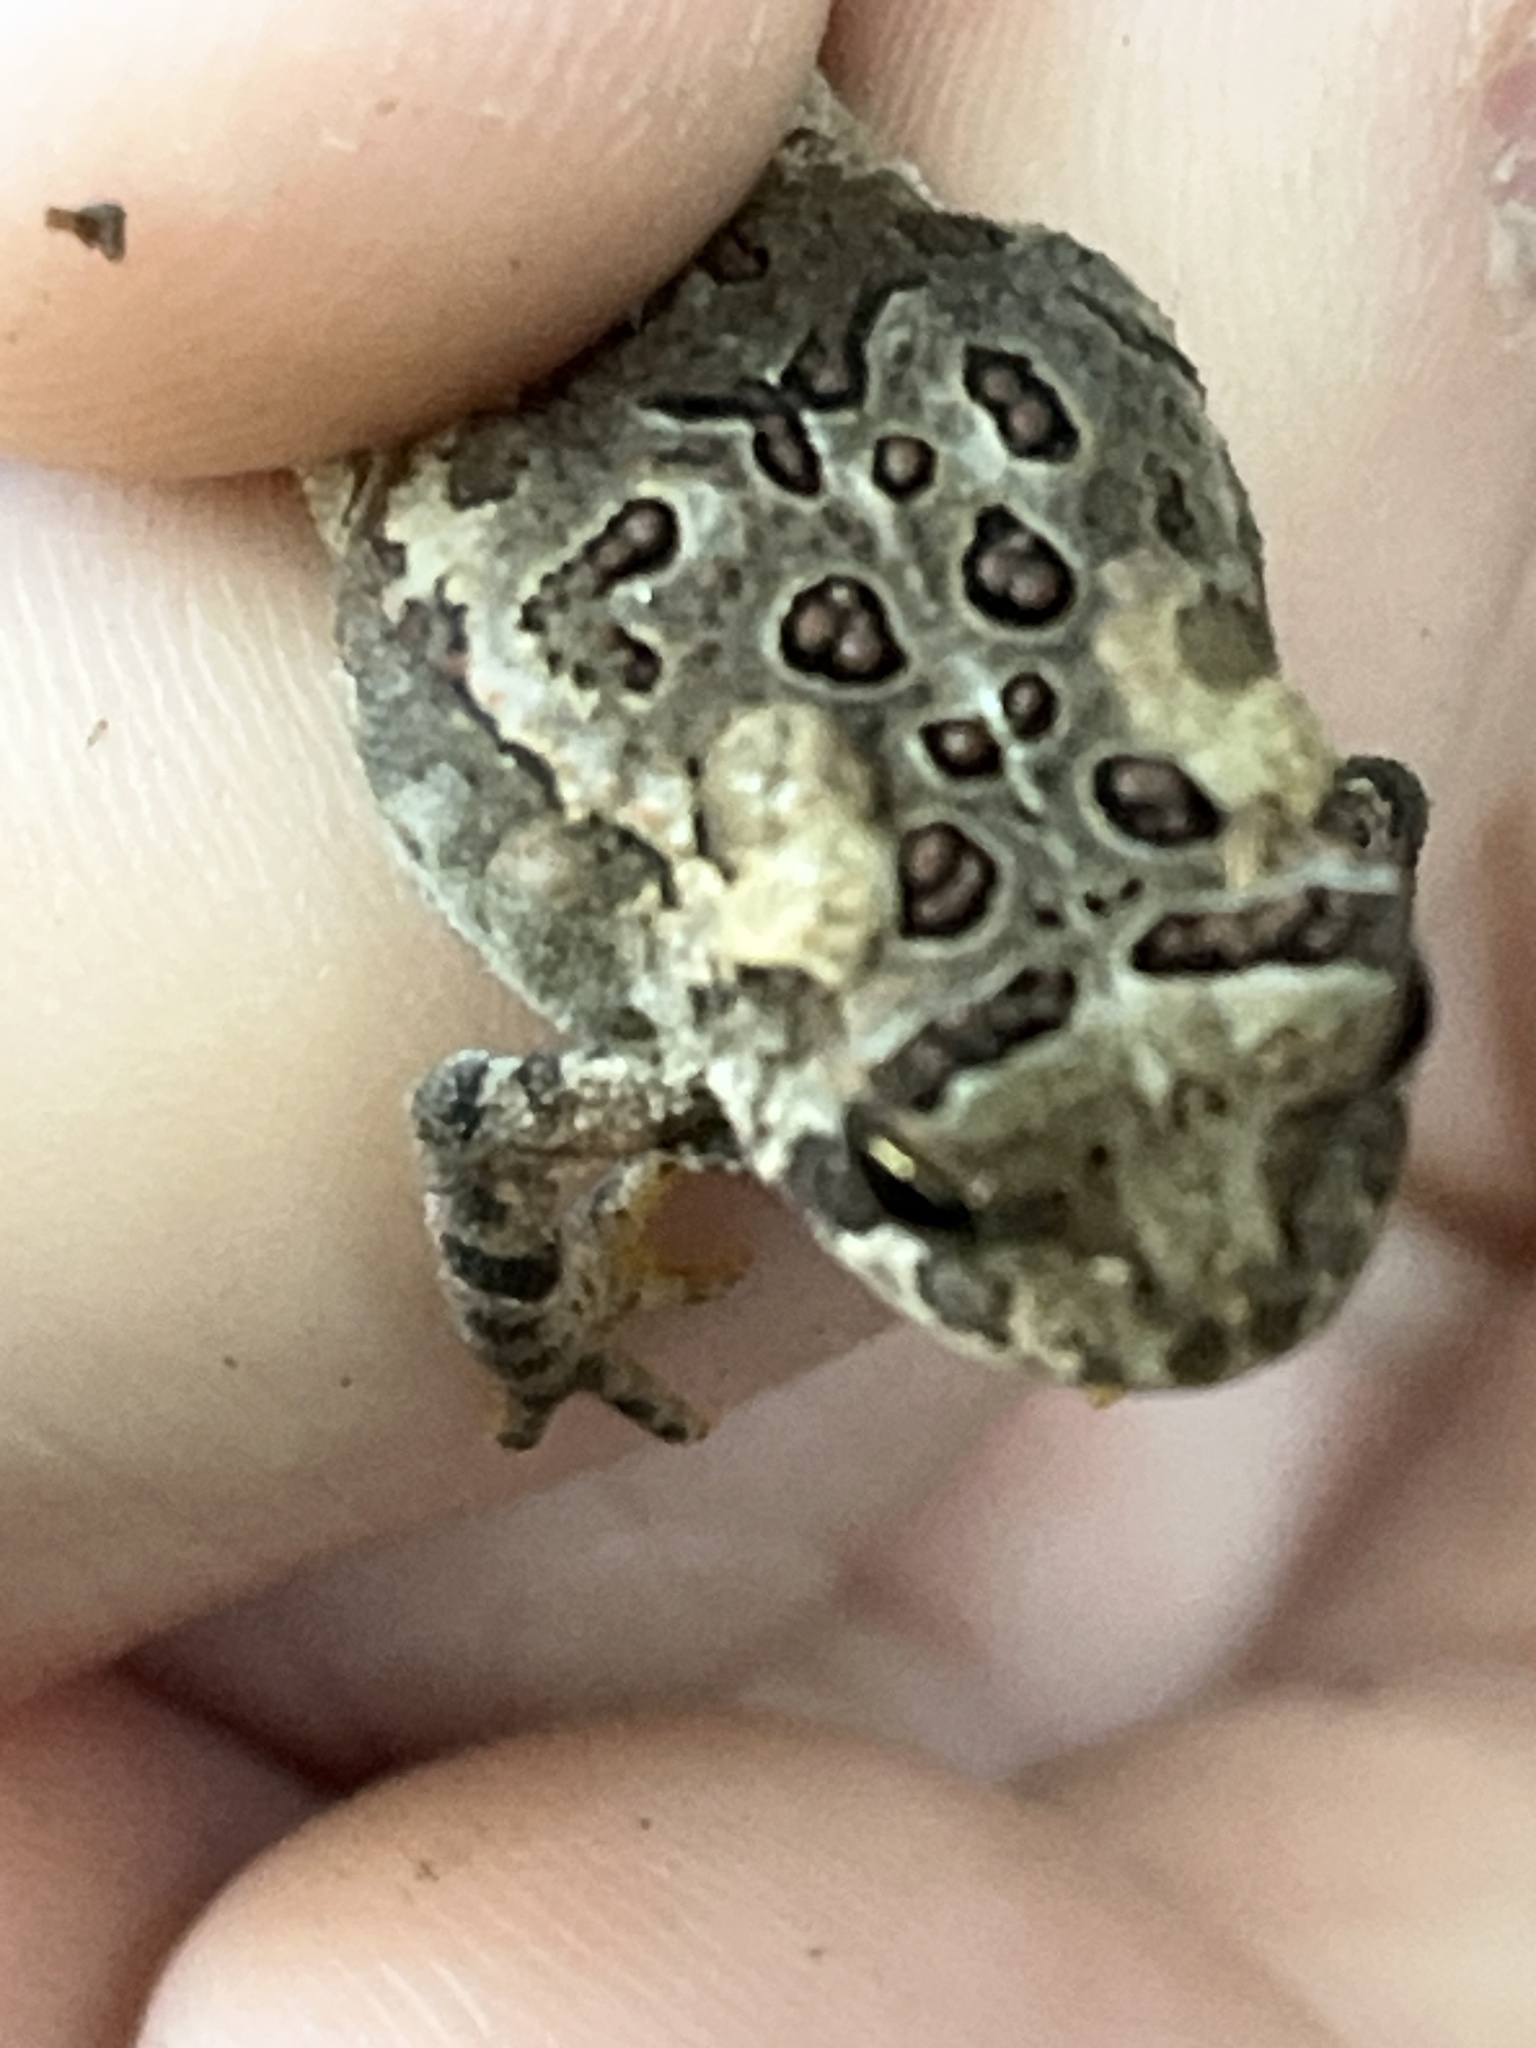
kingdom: Animalia
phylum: Chordata
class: Amphibia
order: Anura
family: Bufonidae
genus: Anaxyrus
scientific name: Anaxyrus americanus
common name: American toad
